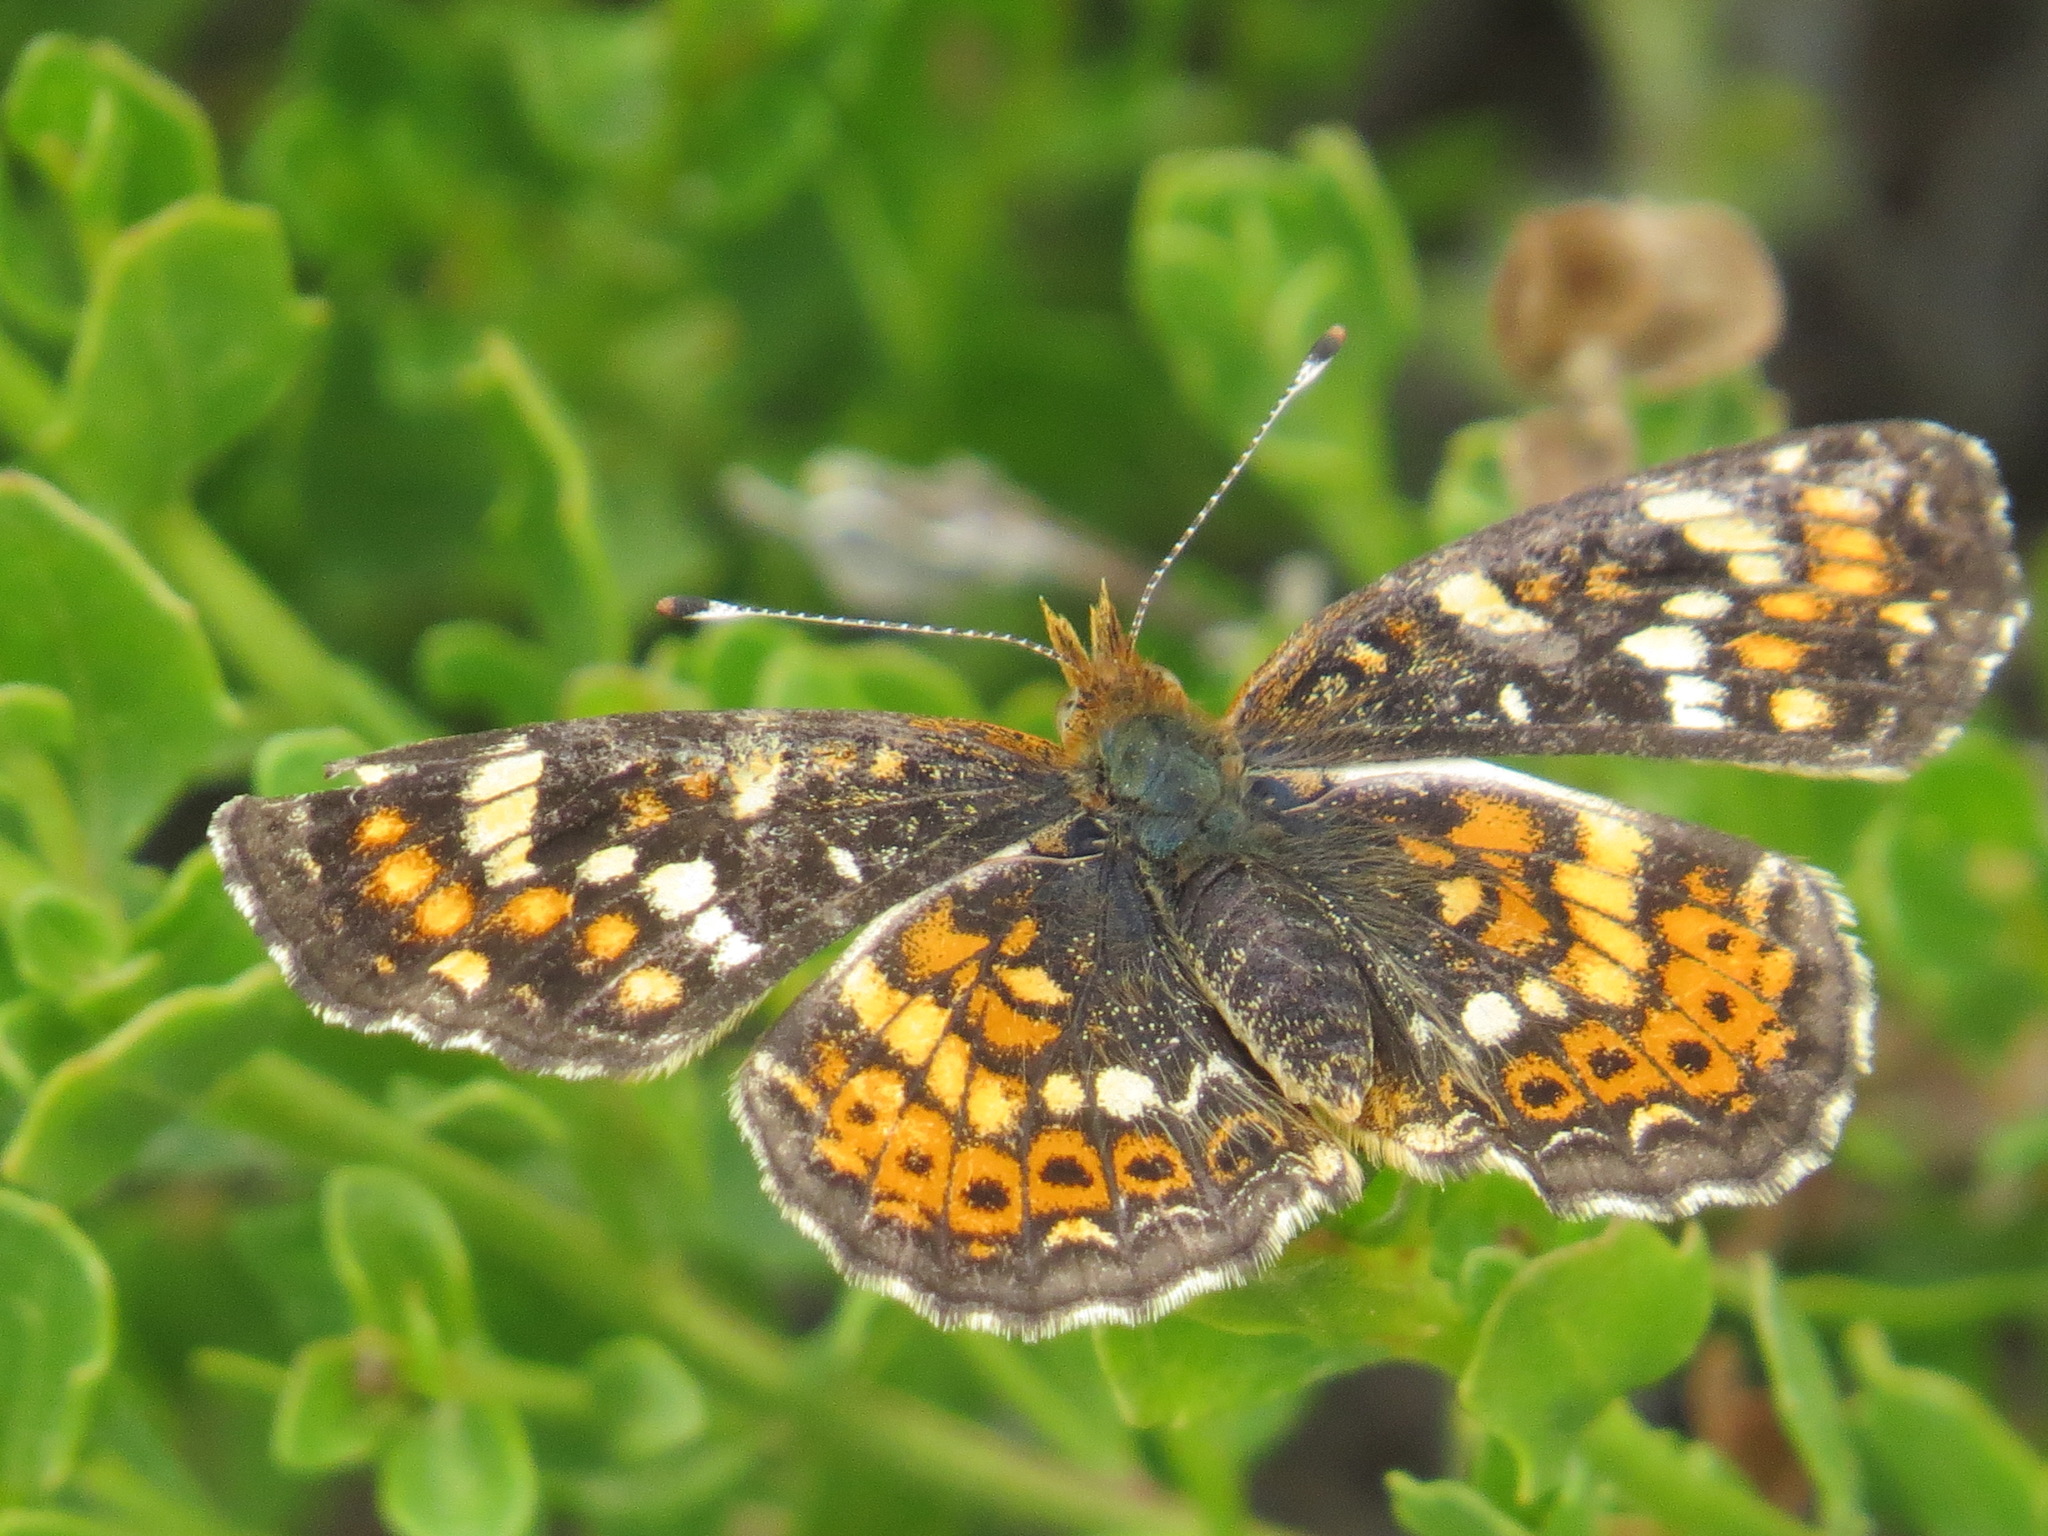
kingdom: Animalia
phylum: Arthropoda
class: Insecta
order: Lepidoptera
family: Nymphalidae
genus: Phyciodes
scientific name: Phyciodes tharos
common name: Pearl crescent
